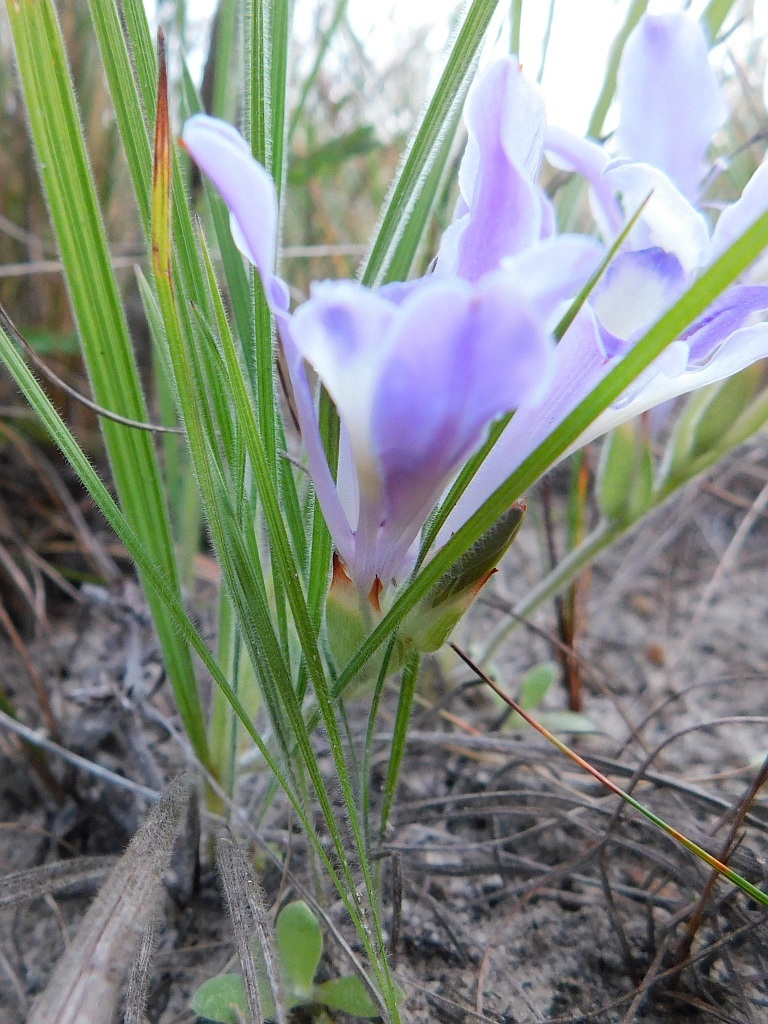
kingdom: Plantae
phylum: Tracheophyta
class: Liliopsida
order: Asparagales
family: Iridaceae
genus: Babiana
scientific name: Babiana ambigua
